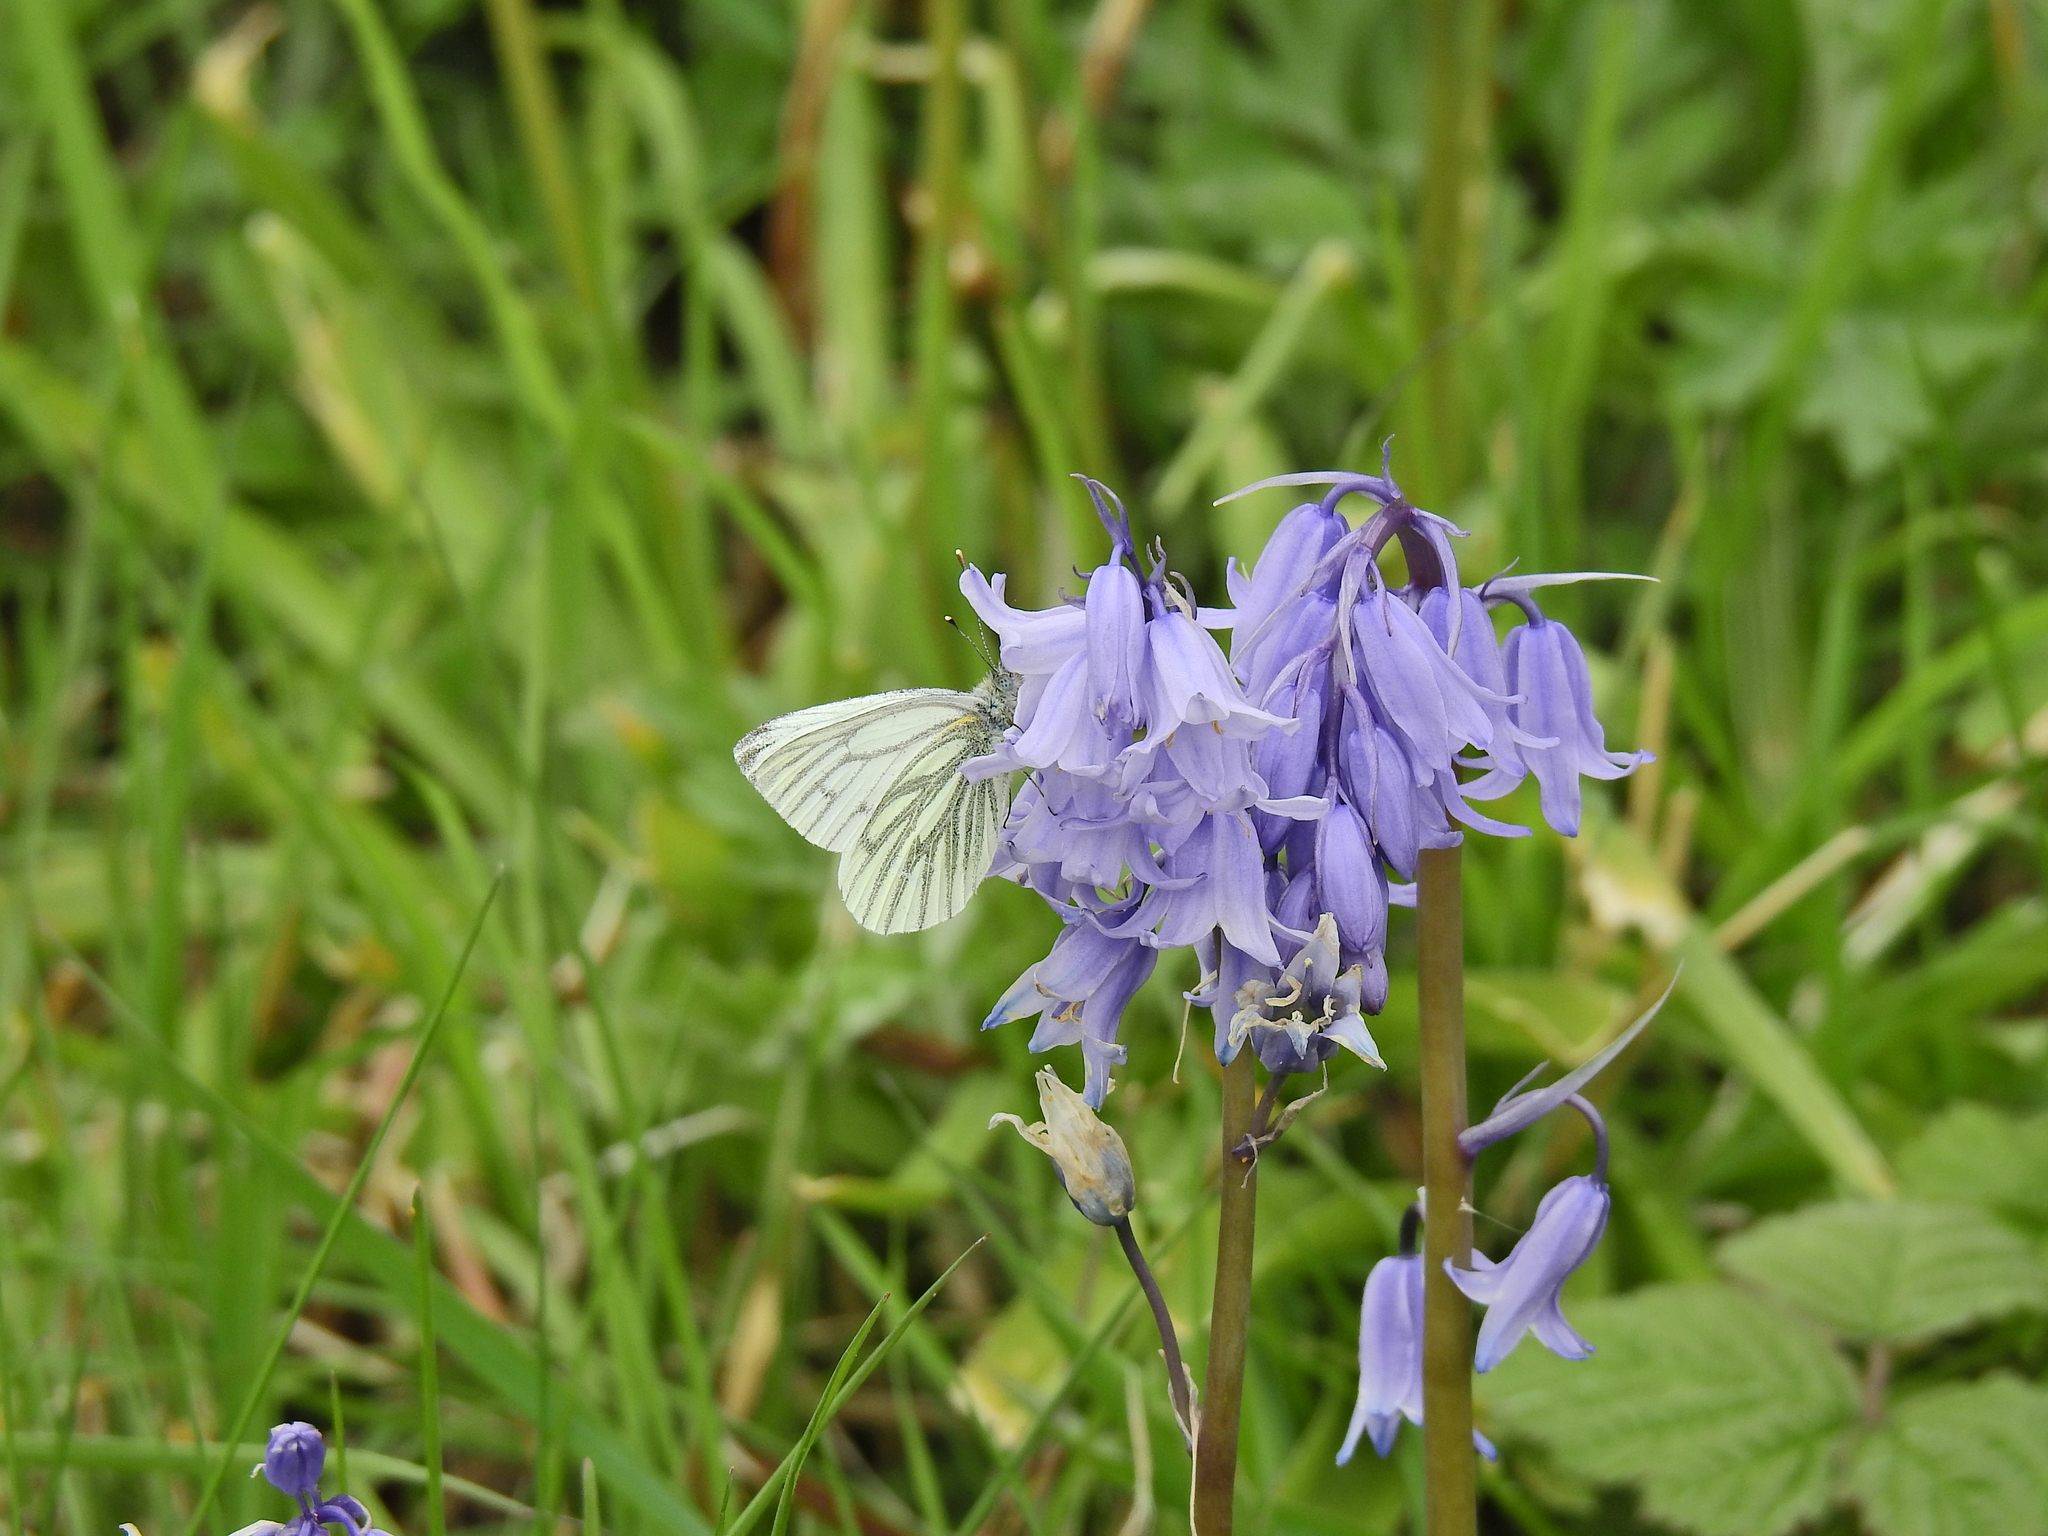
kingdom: Animalia
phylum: Arthropoda
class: Insecta
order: Lepidoptera
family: Pieridae
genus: Pieris
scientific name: Pieris napi
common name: Green-veined white
